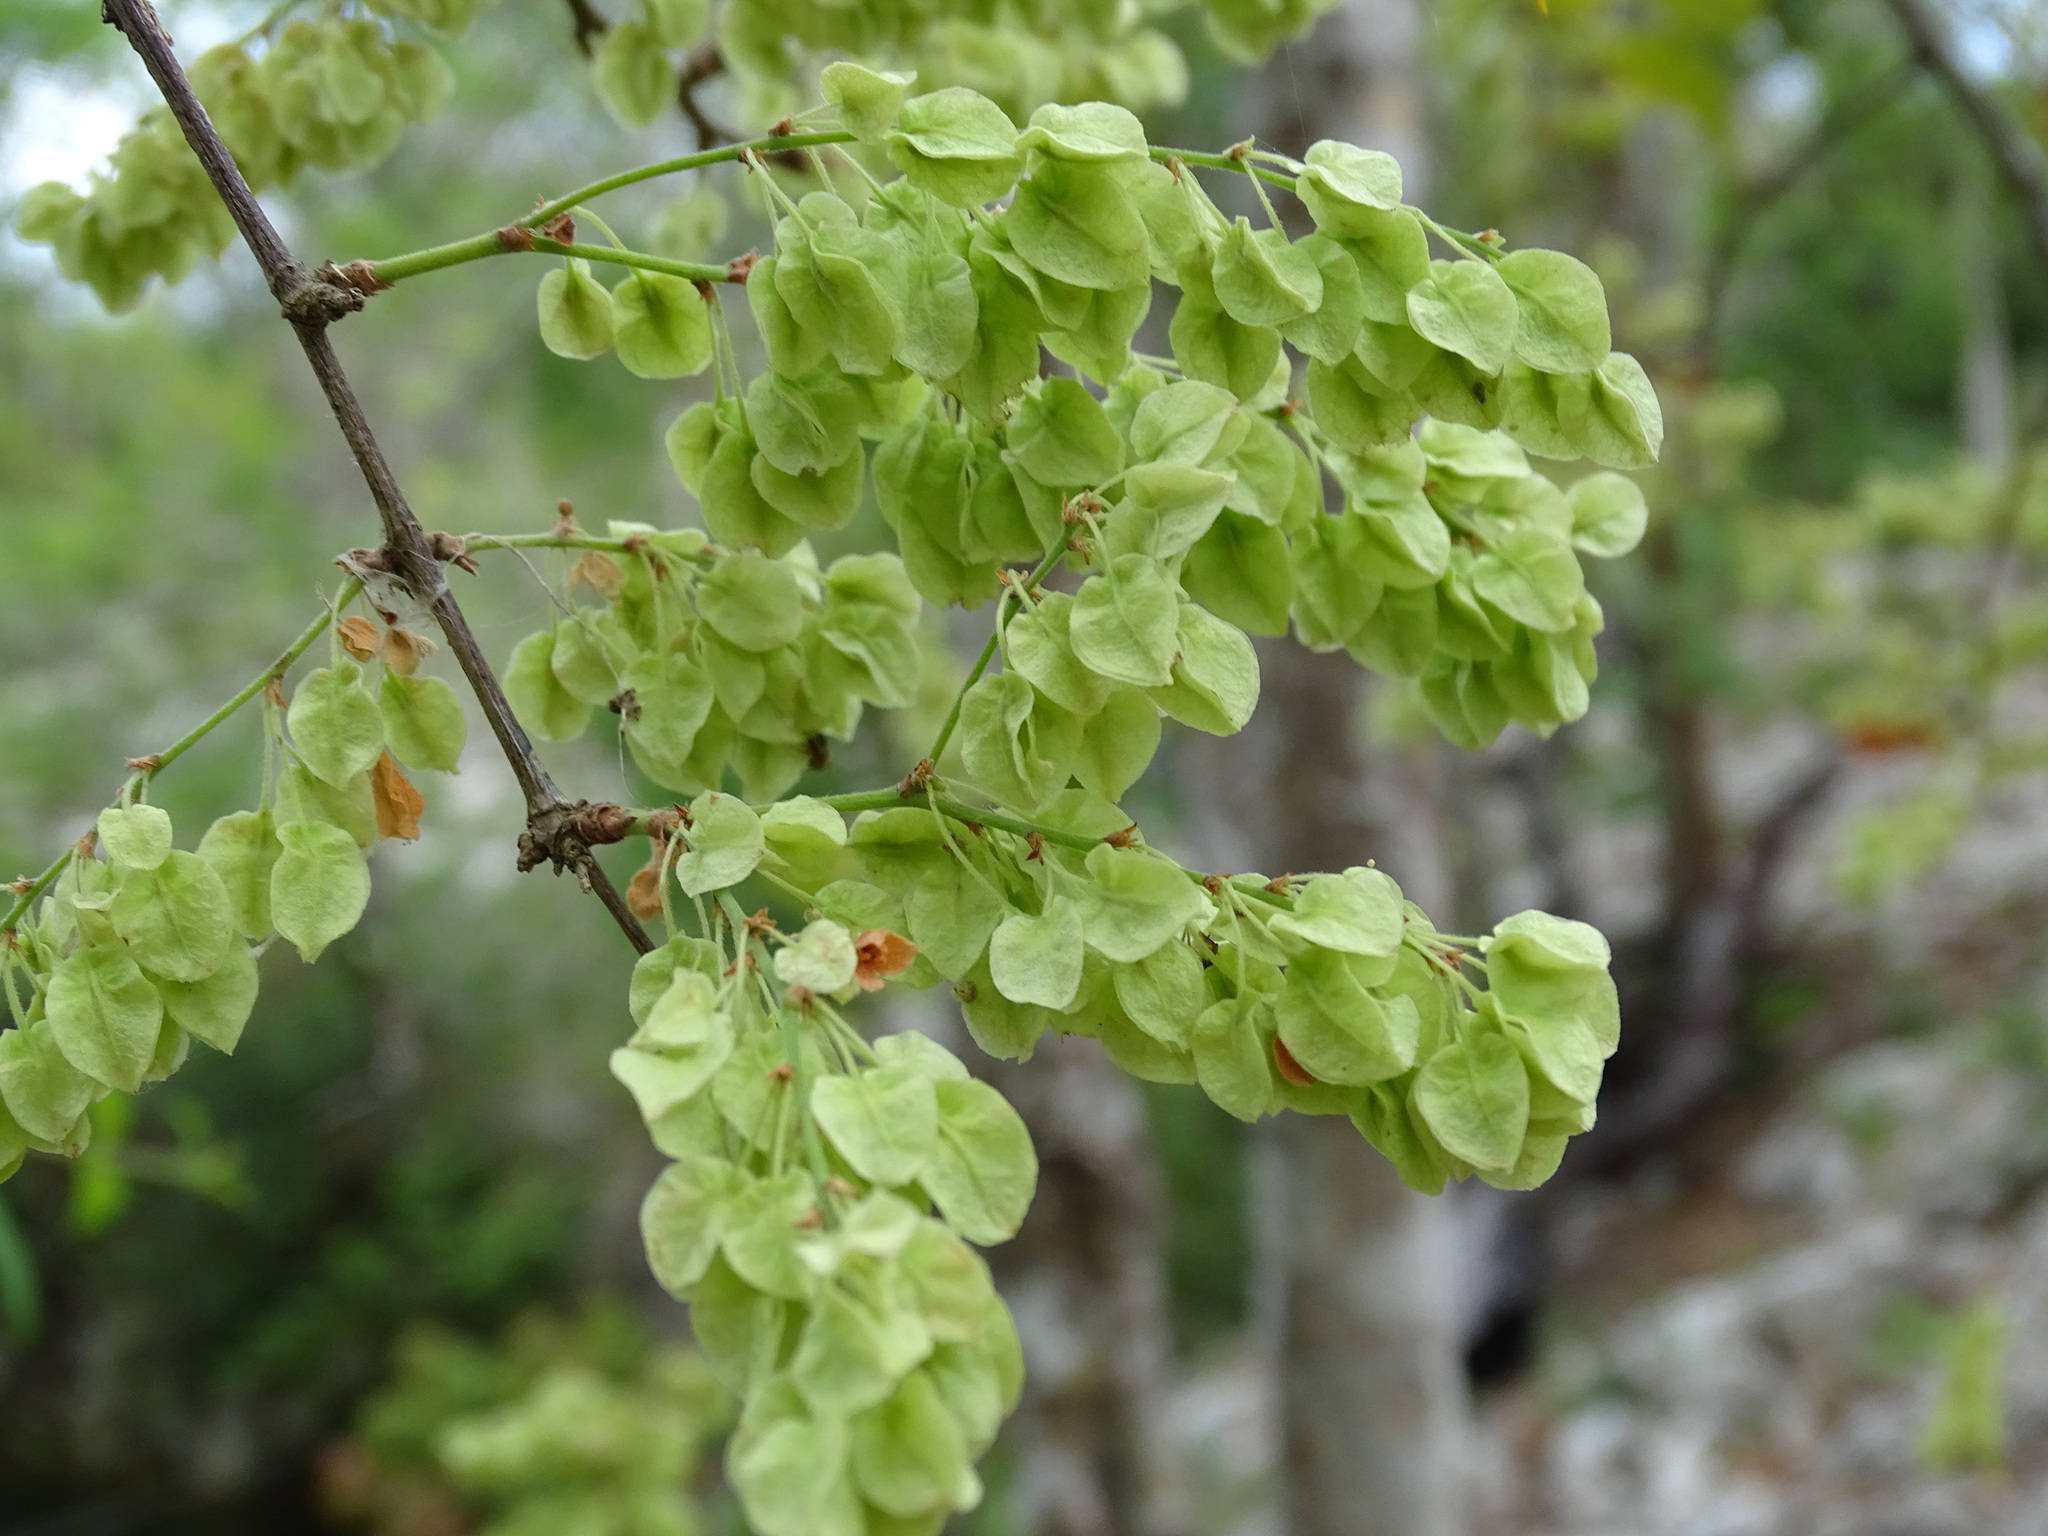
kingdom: Plantae
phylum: Tracheophyta
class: Magnoliopsida
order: Caryophyllales
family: Polygonaceae
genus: Gymnopodium
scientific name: Gymnopodium floribundum
